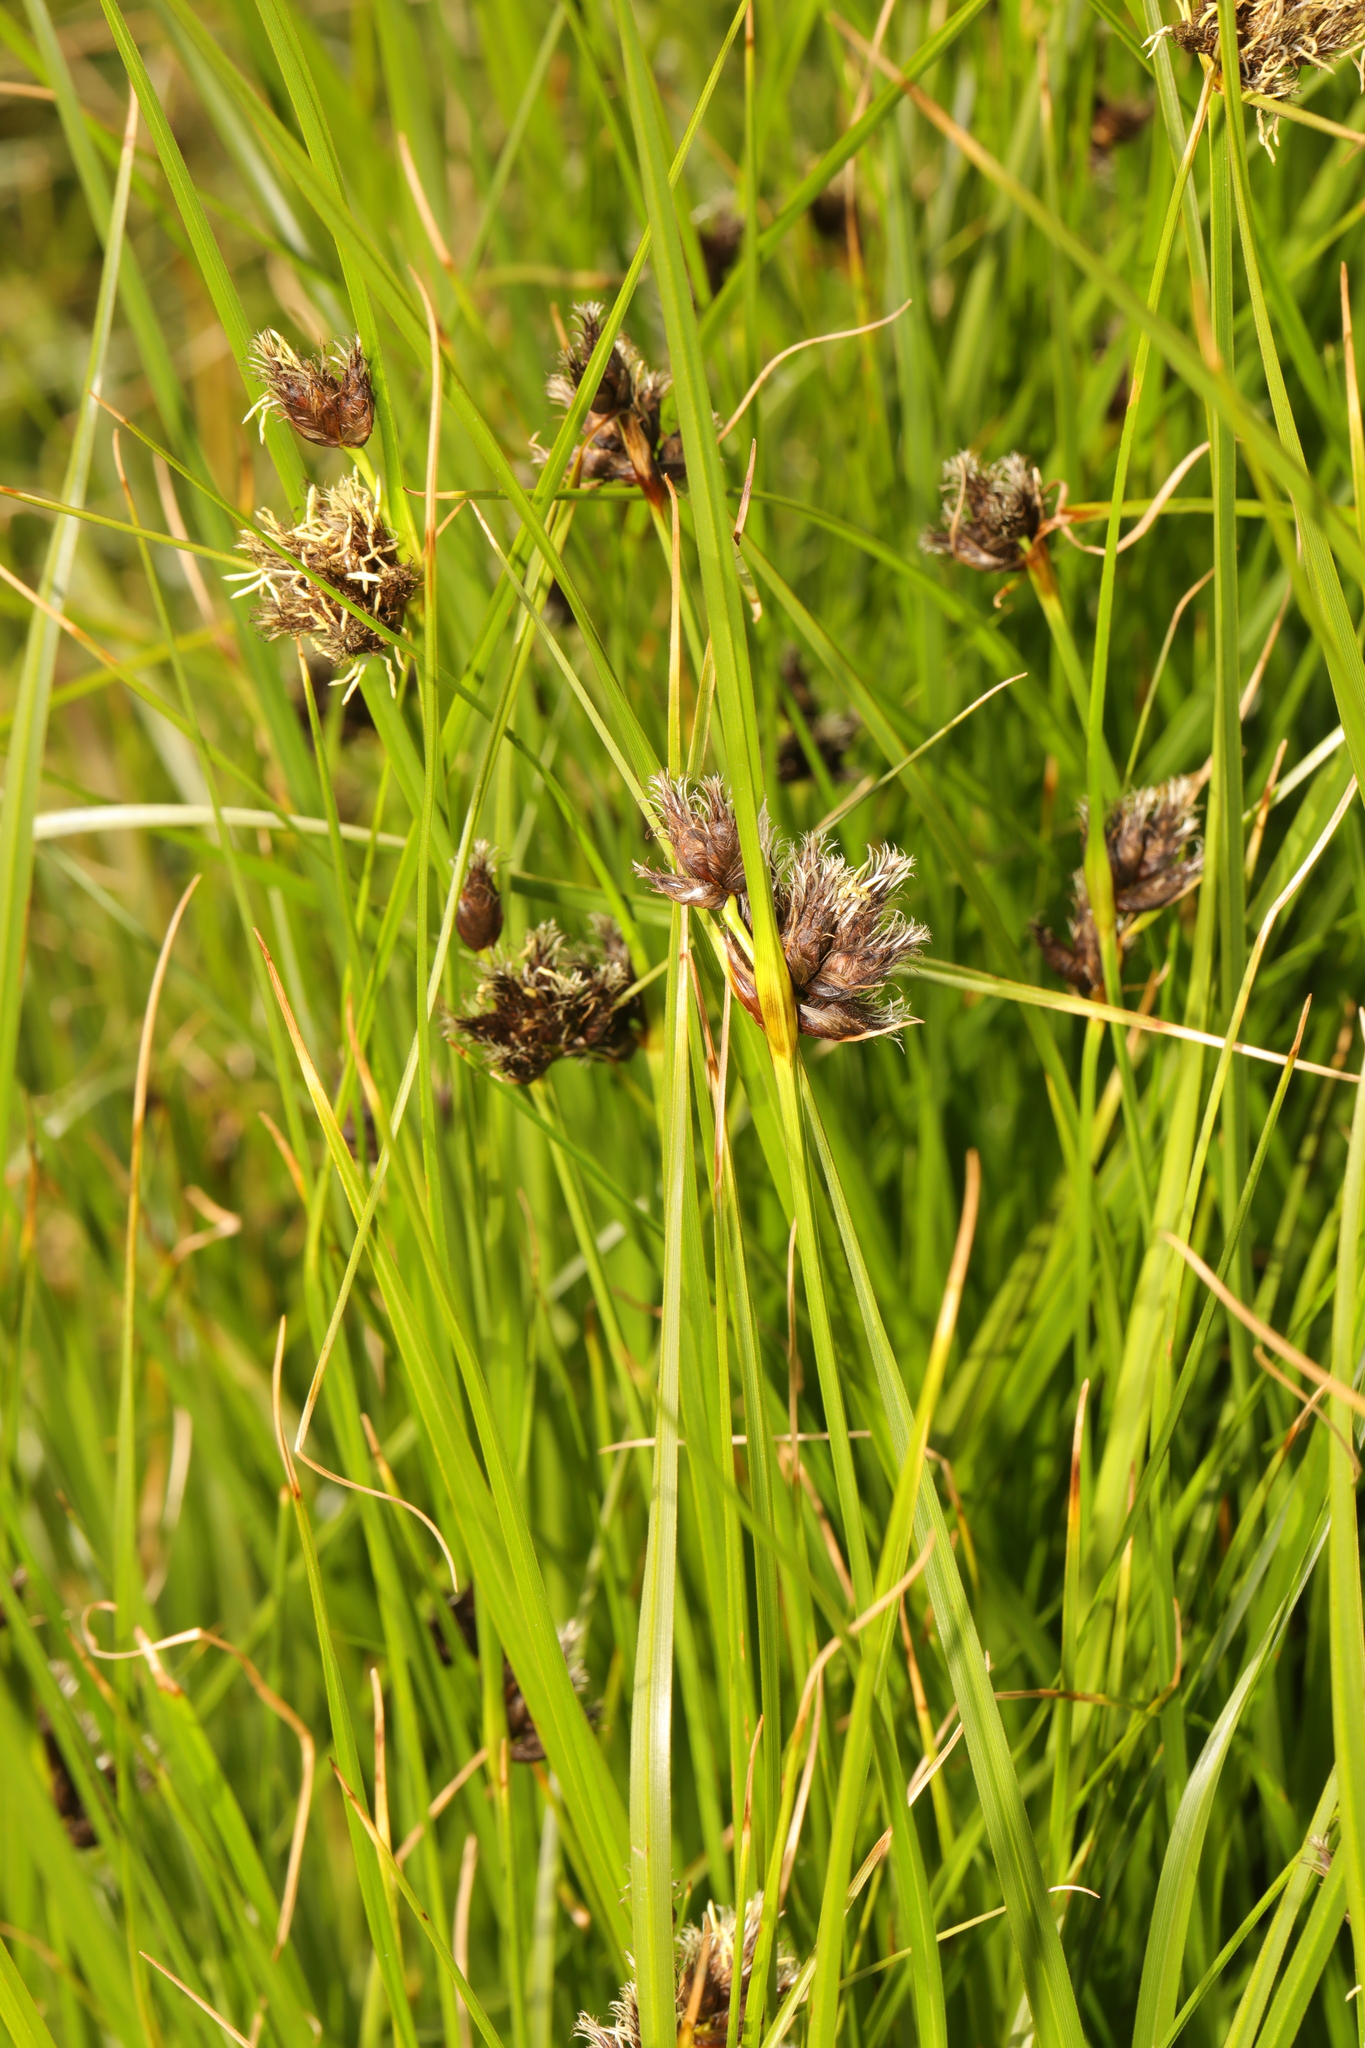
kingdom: Plantae
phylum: Tracheophyta
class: Liliopsida
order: Poales
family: Cyperaceae
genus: Bolboschoenus
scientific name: Bolboschoenus maritimus
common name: Sea club-rush
